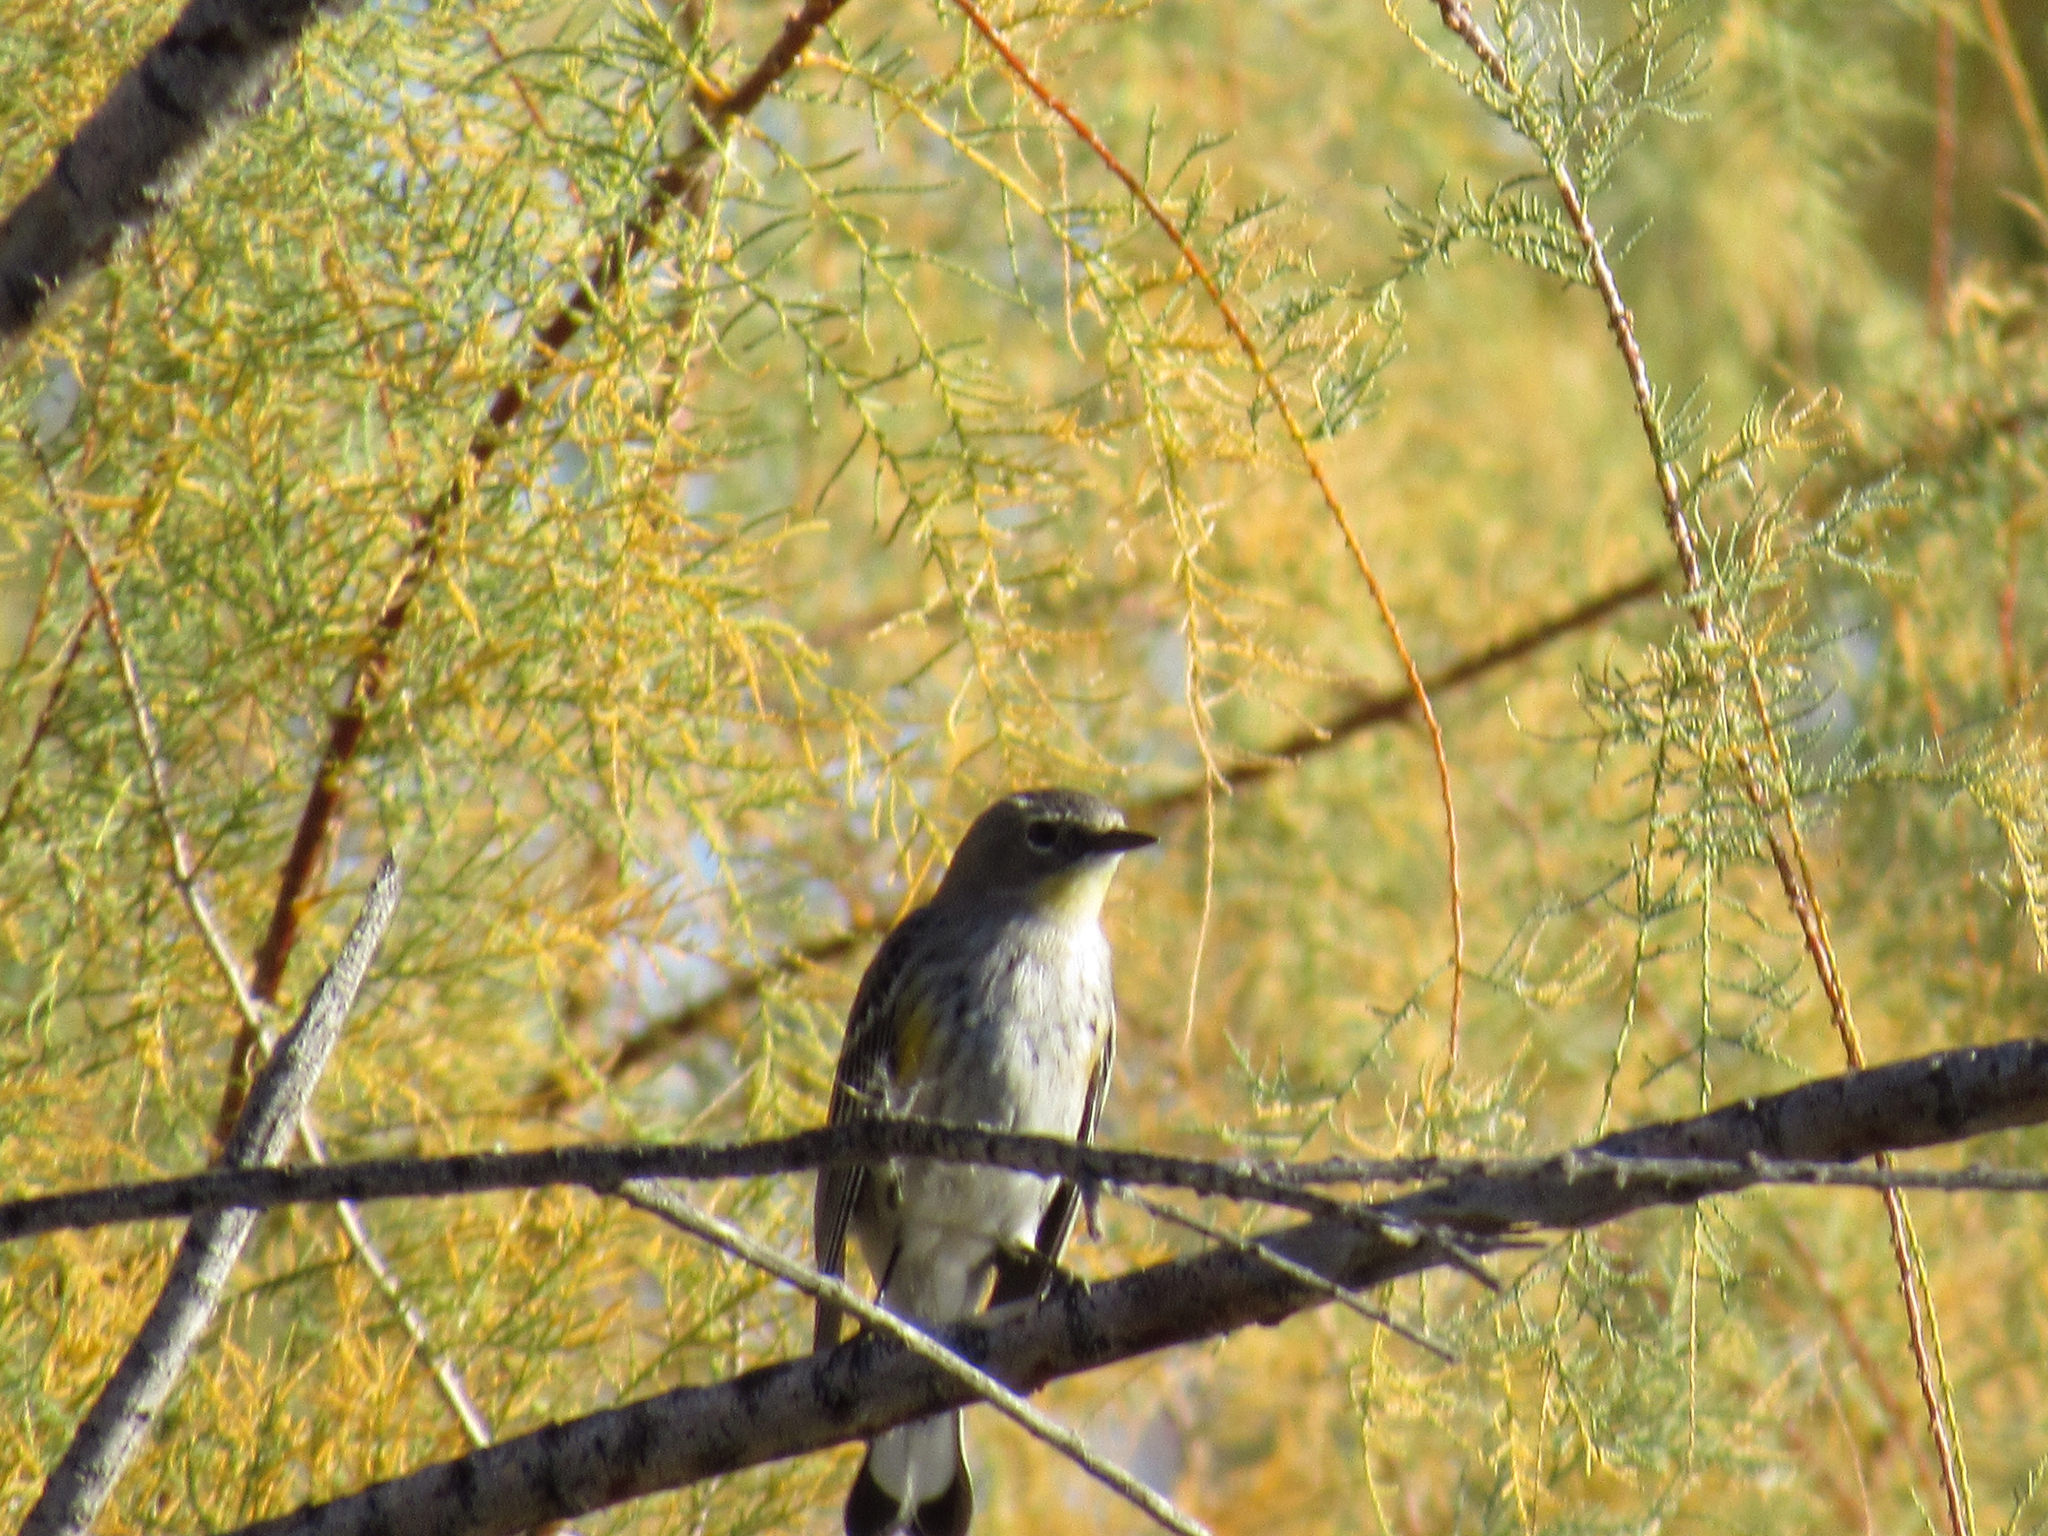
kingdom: Animalia
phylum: Chordata
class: Aves
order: Passeriformes
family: Parulidae
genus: Setophaga
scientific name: Setophaga coronata
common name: Myrtle warbler
